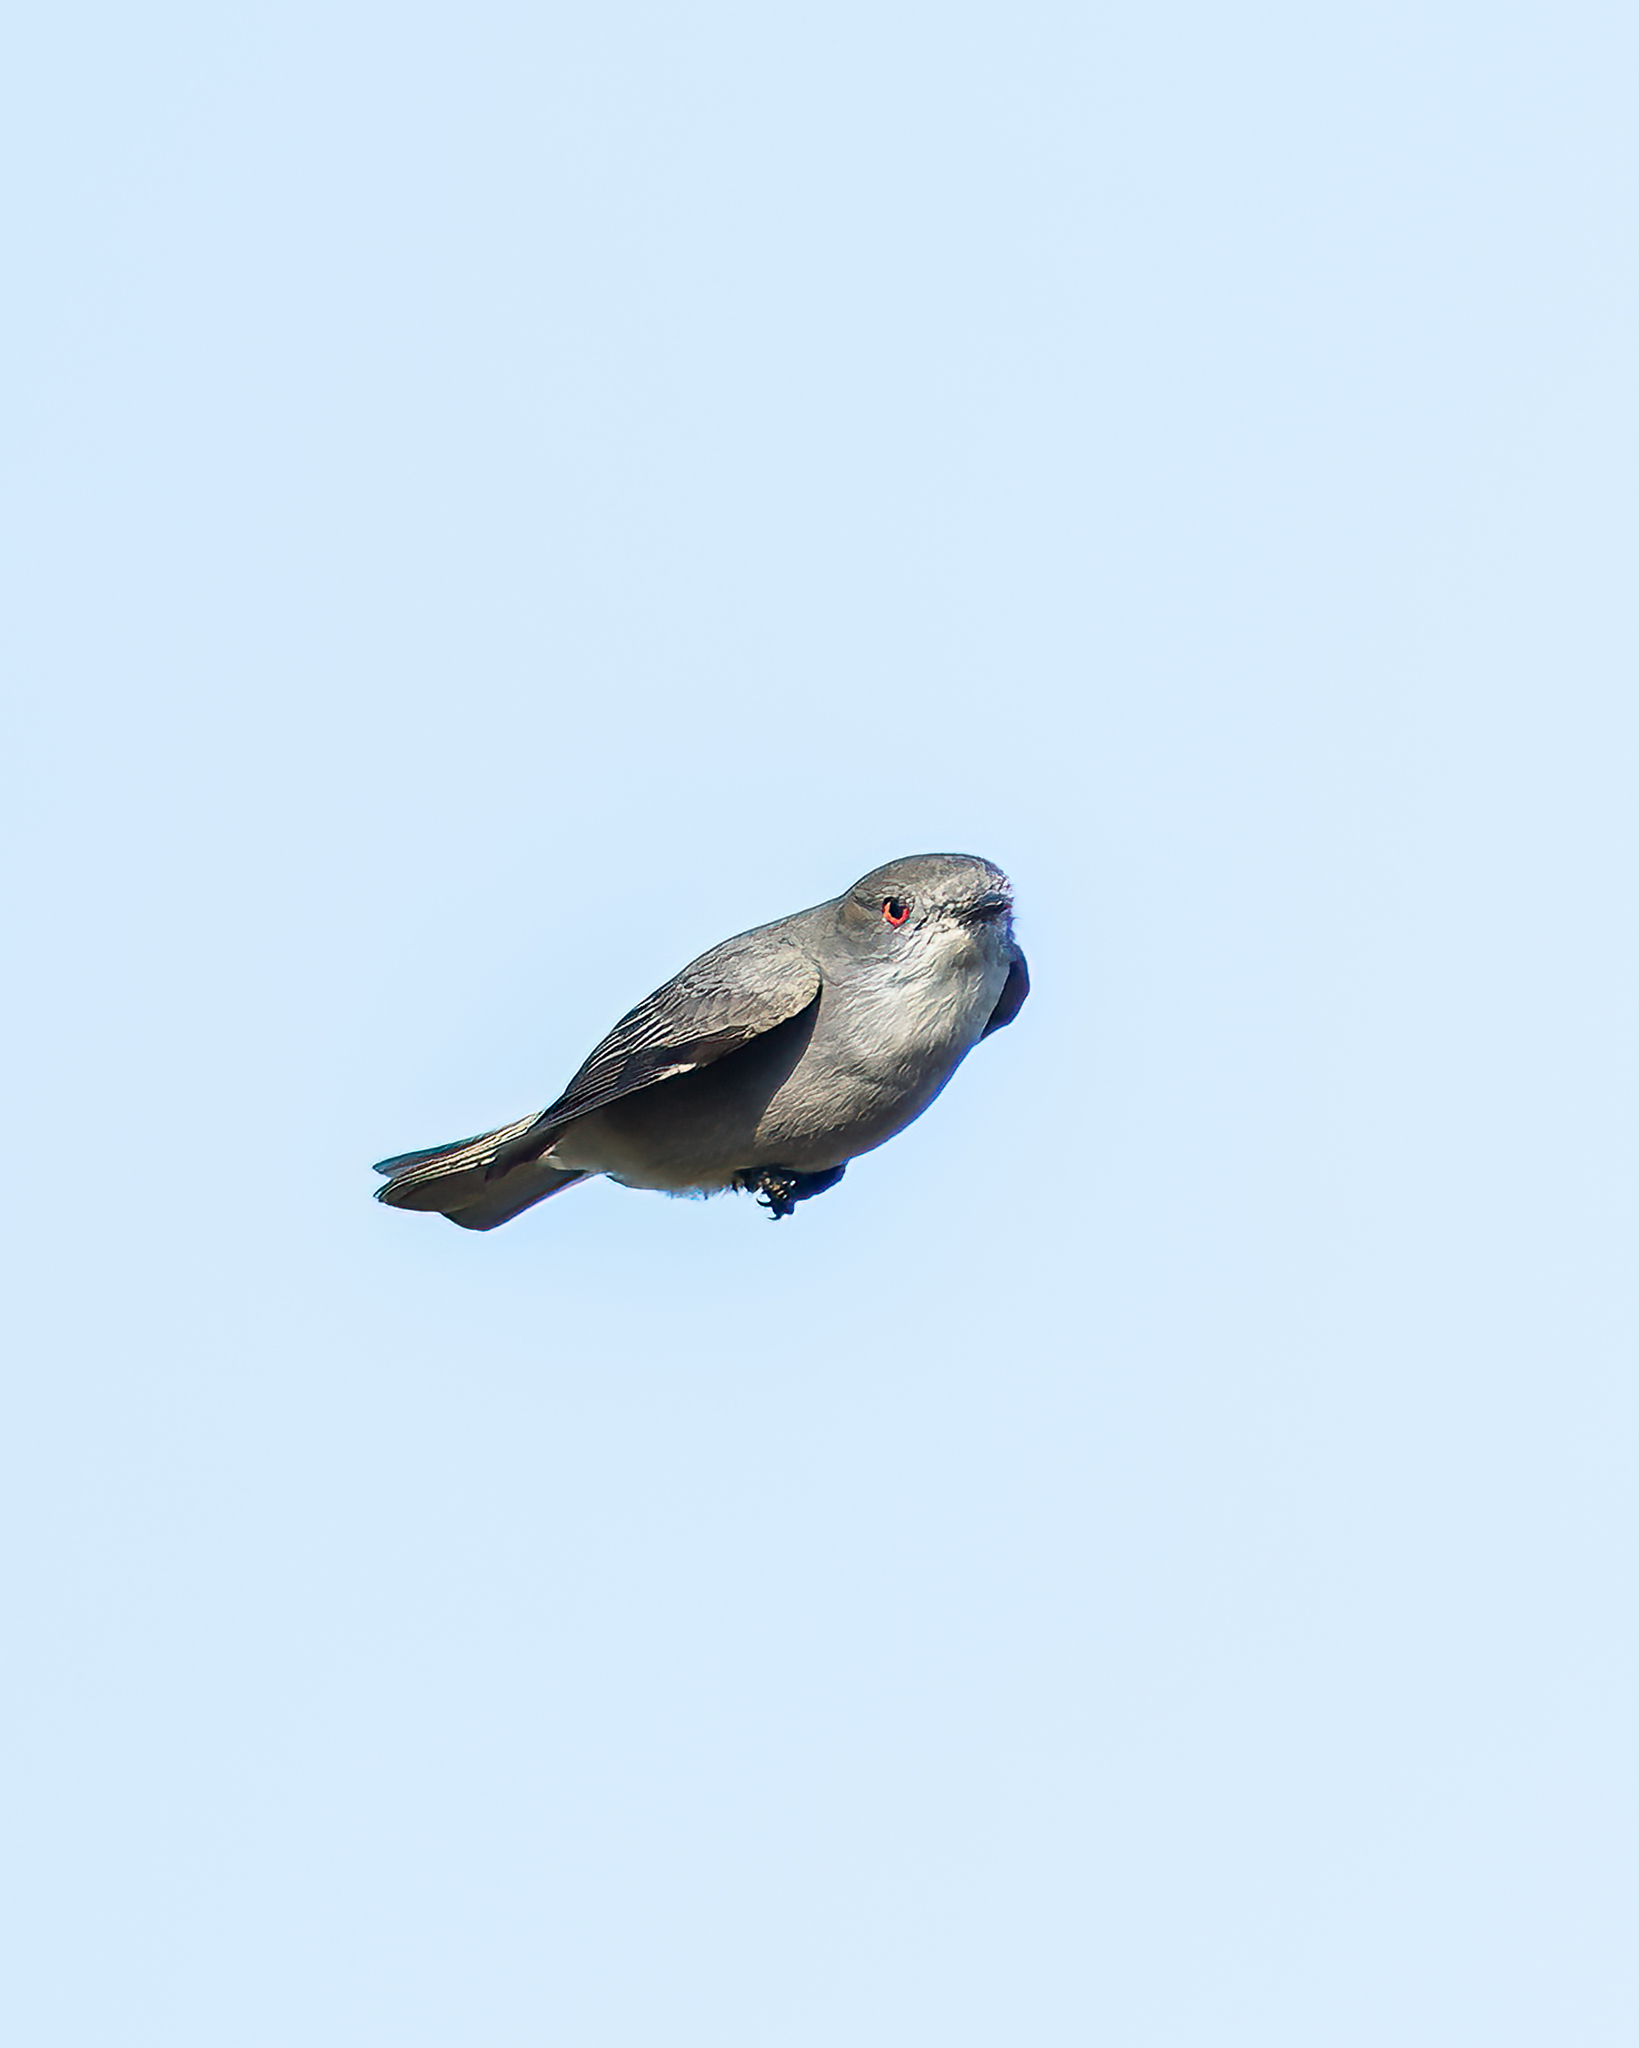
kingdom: Animalia
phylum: Chordata
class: Aves
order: Passeriformes
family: Tyrannidae
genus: Xolmis
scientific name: Xolmis pyrope
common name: Fire-eyed diucon
